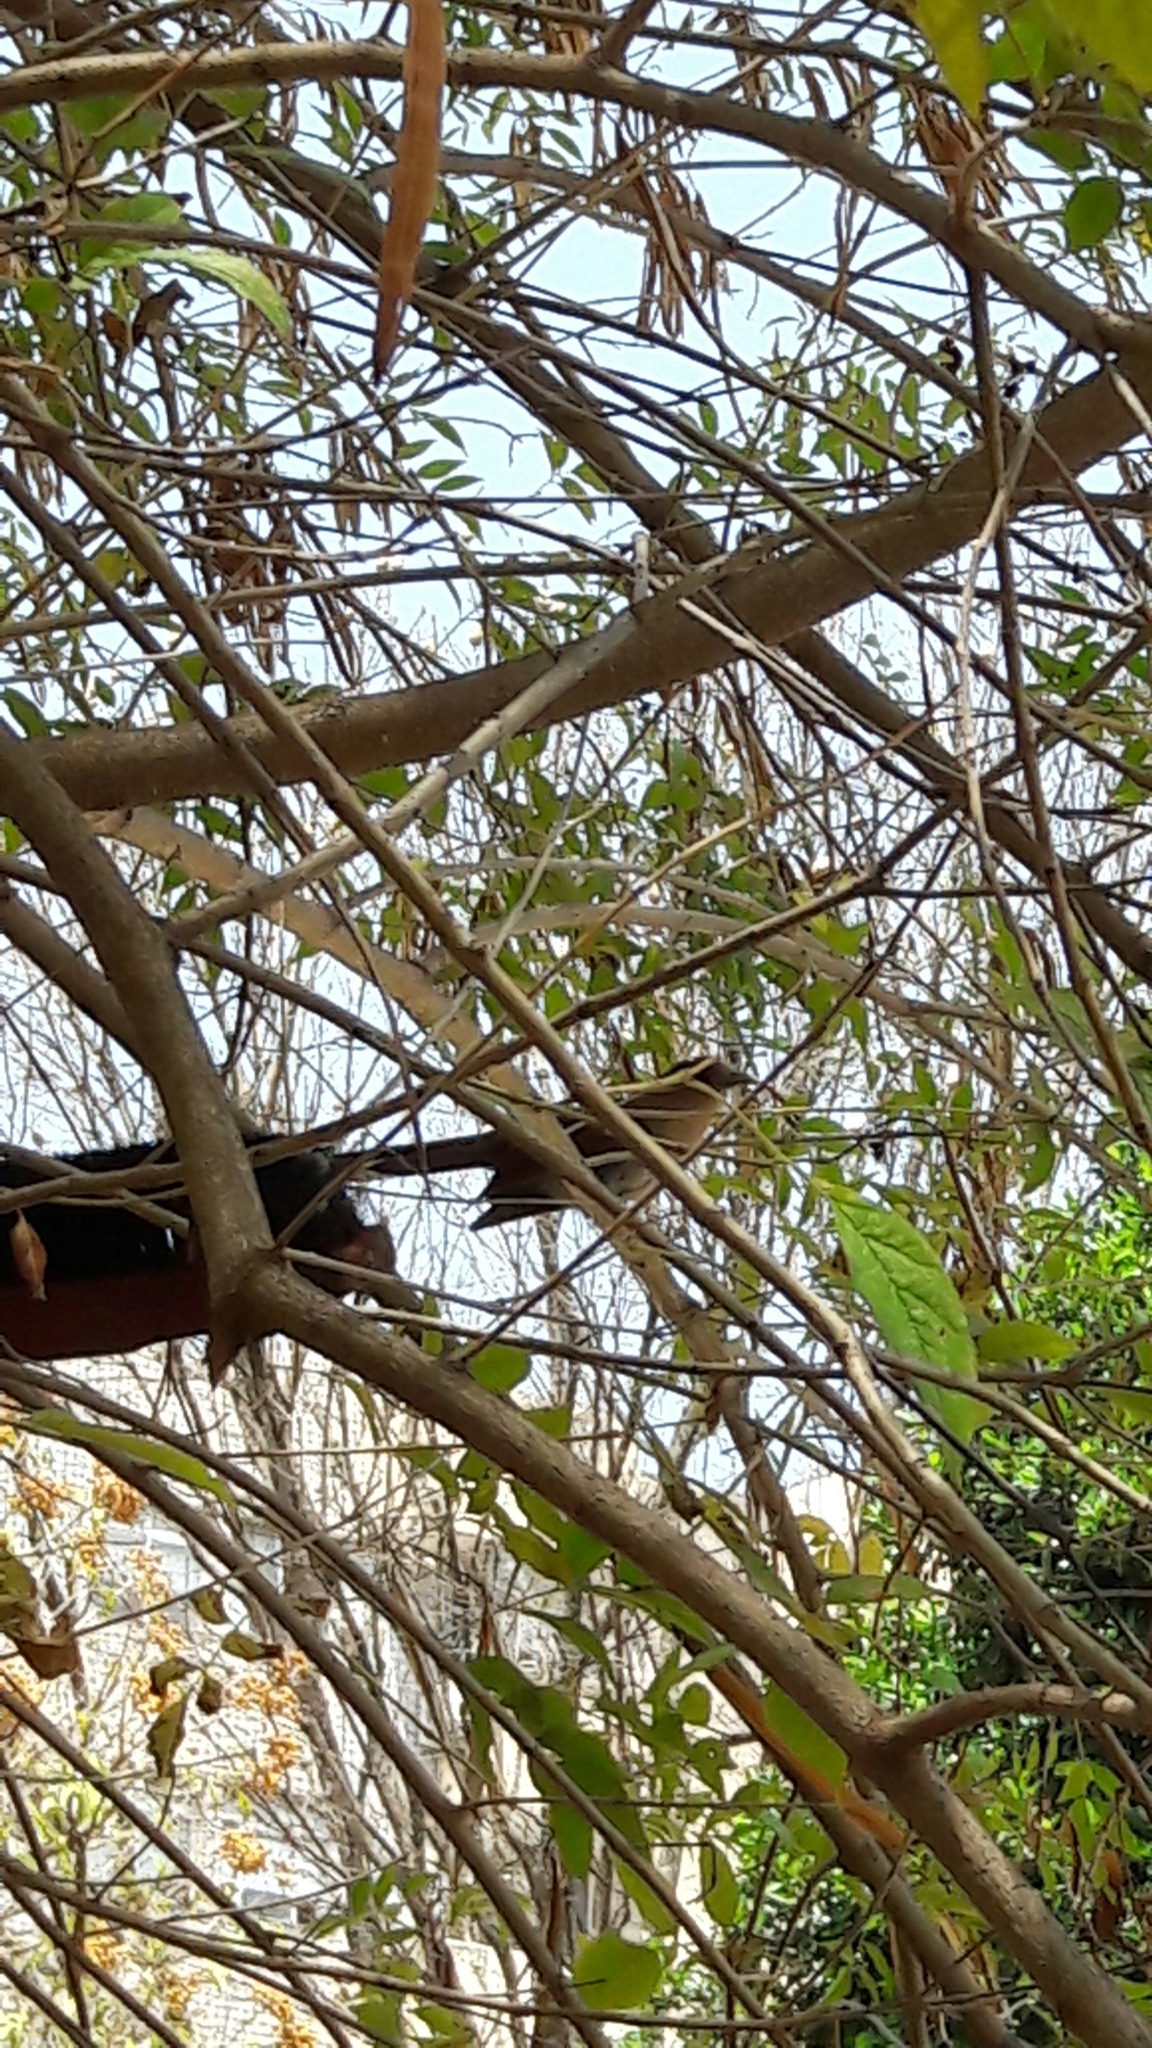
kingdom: Animalia
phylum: Chordata
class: Aves
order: Cuculiformes
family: Cuculidae
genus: Piaya
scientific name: Piaya cayana
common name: Squirrel cuckoo
